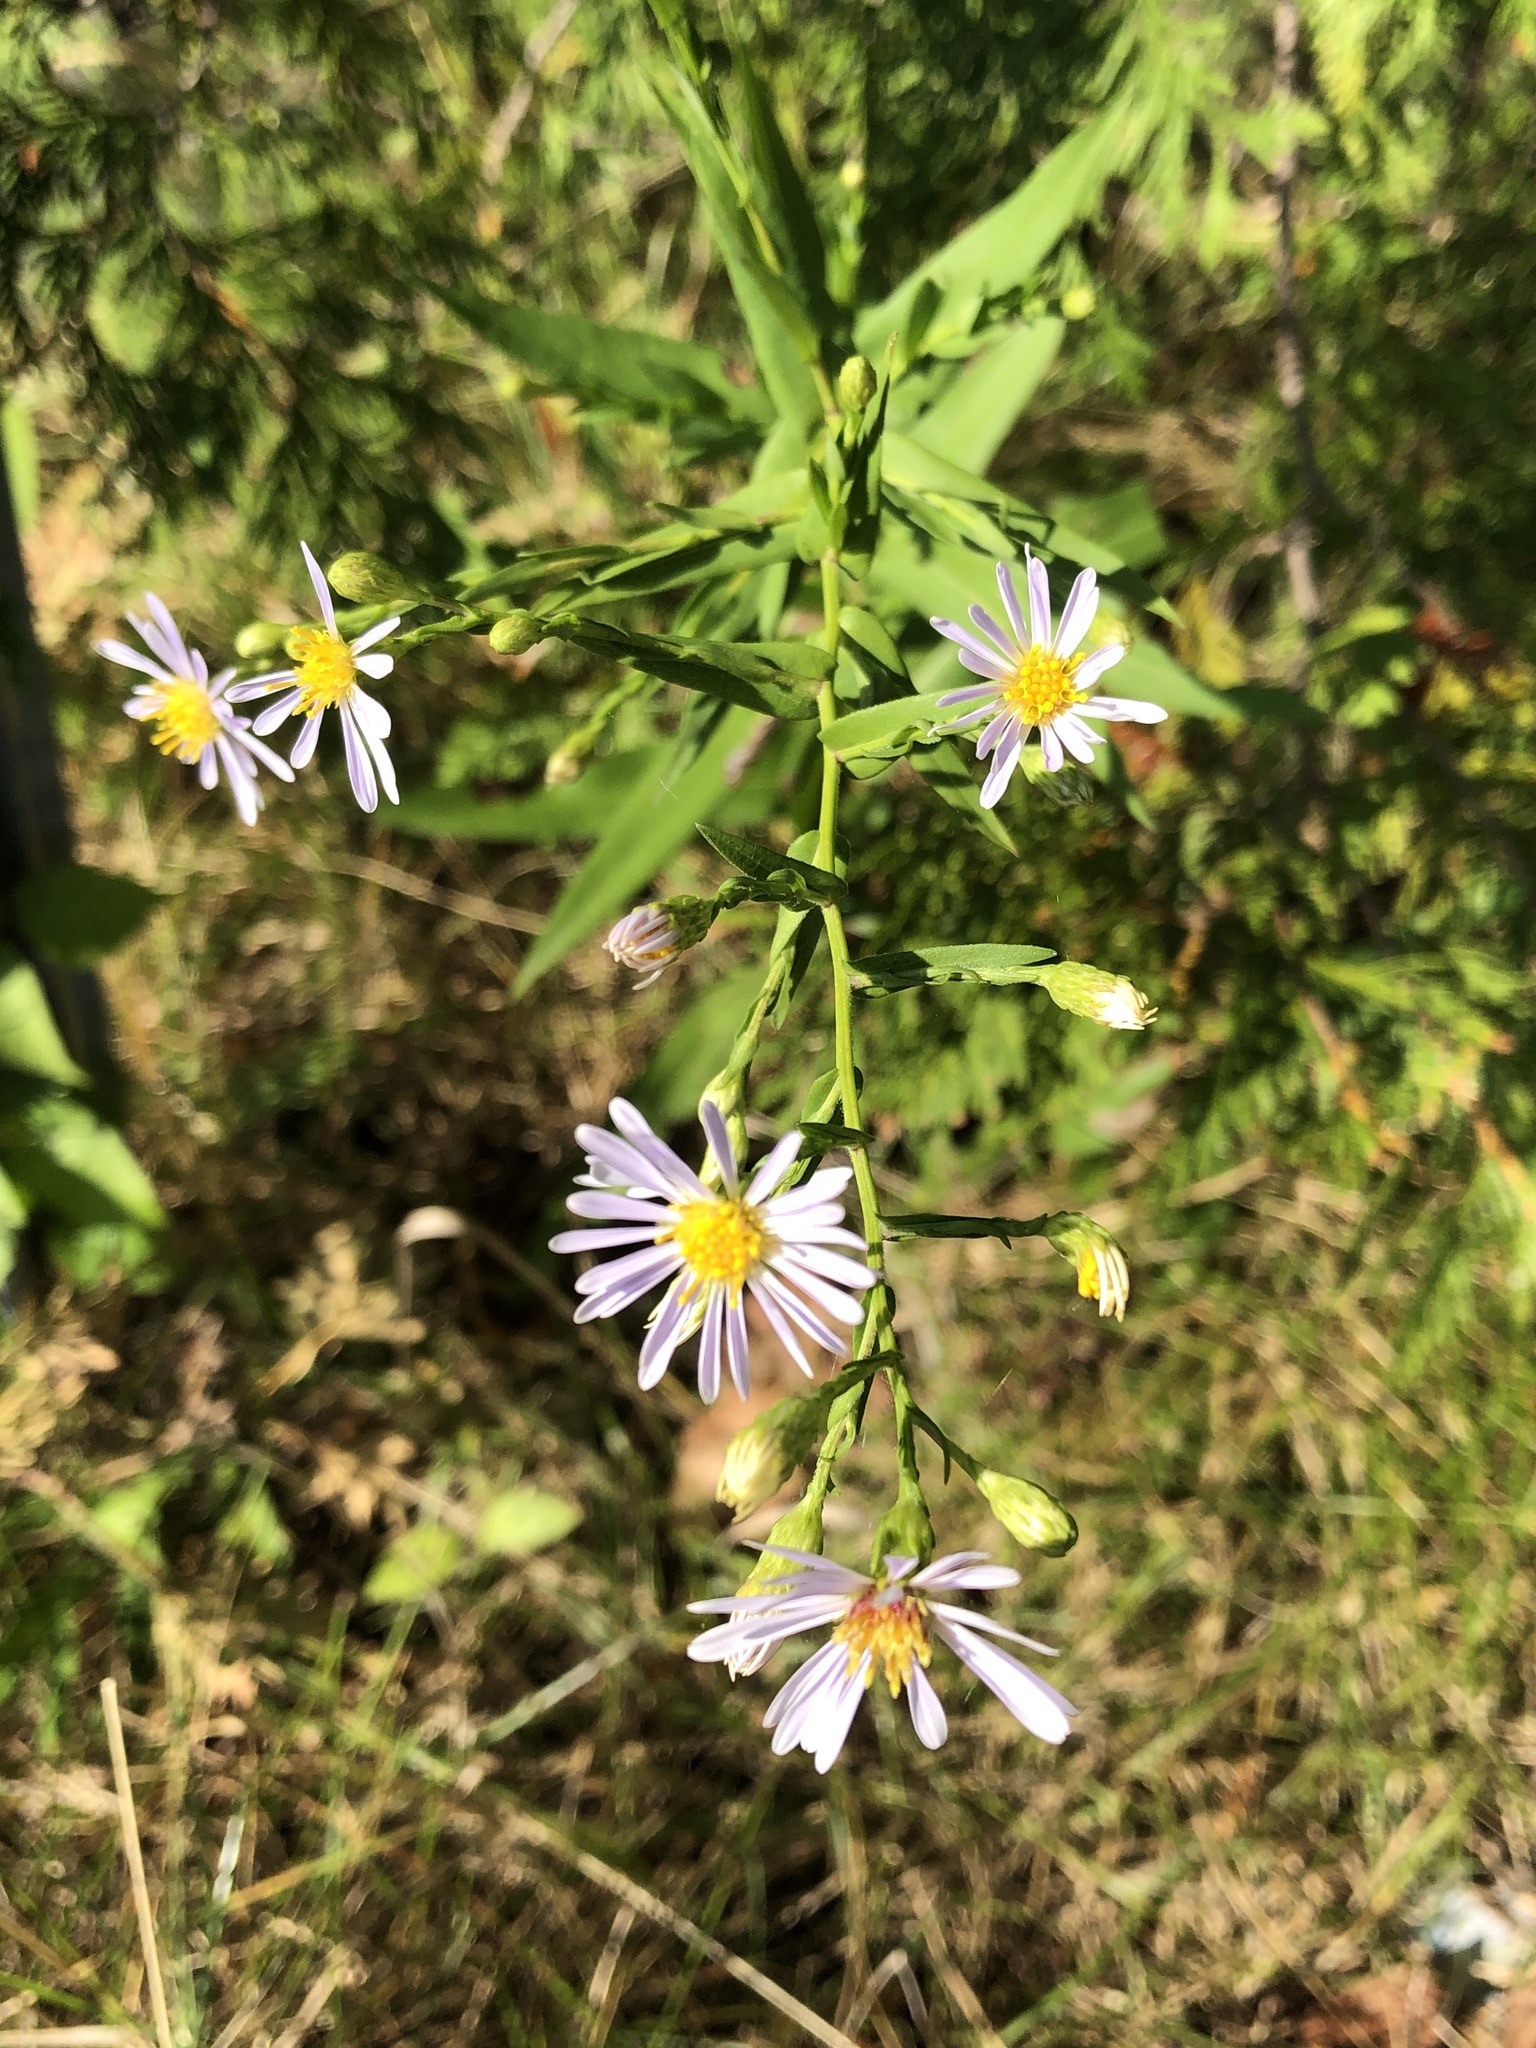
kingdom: Plantae
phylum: Tracheophyta
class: Magnoliopsida
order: Asterales
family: Asteraceae
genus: Symphyotrichum
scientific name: Symphyotrichum laeve
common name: Glaucous aster
